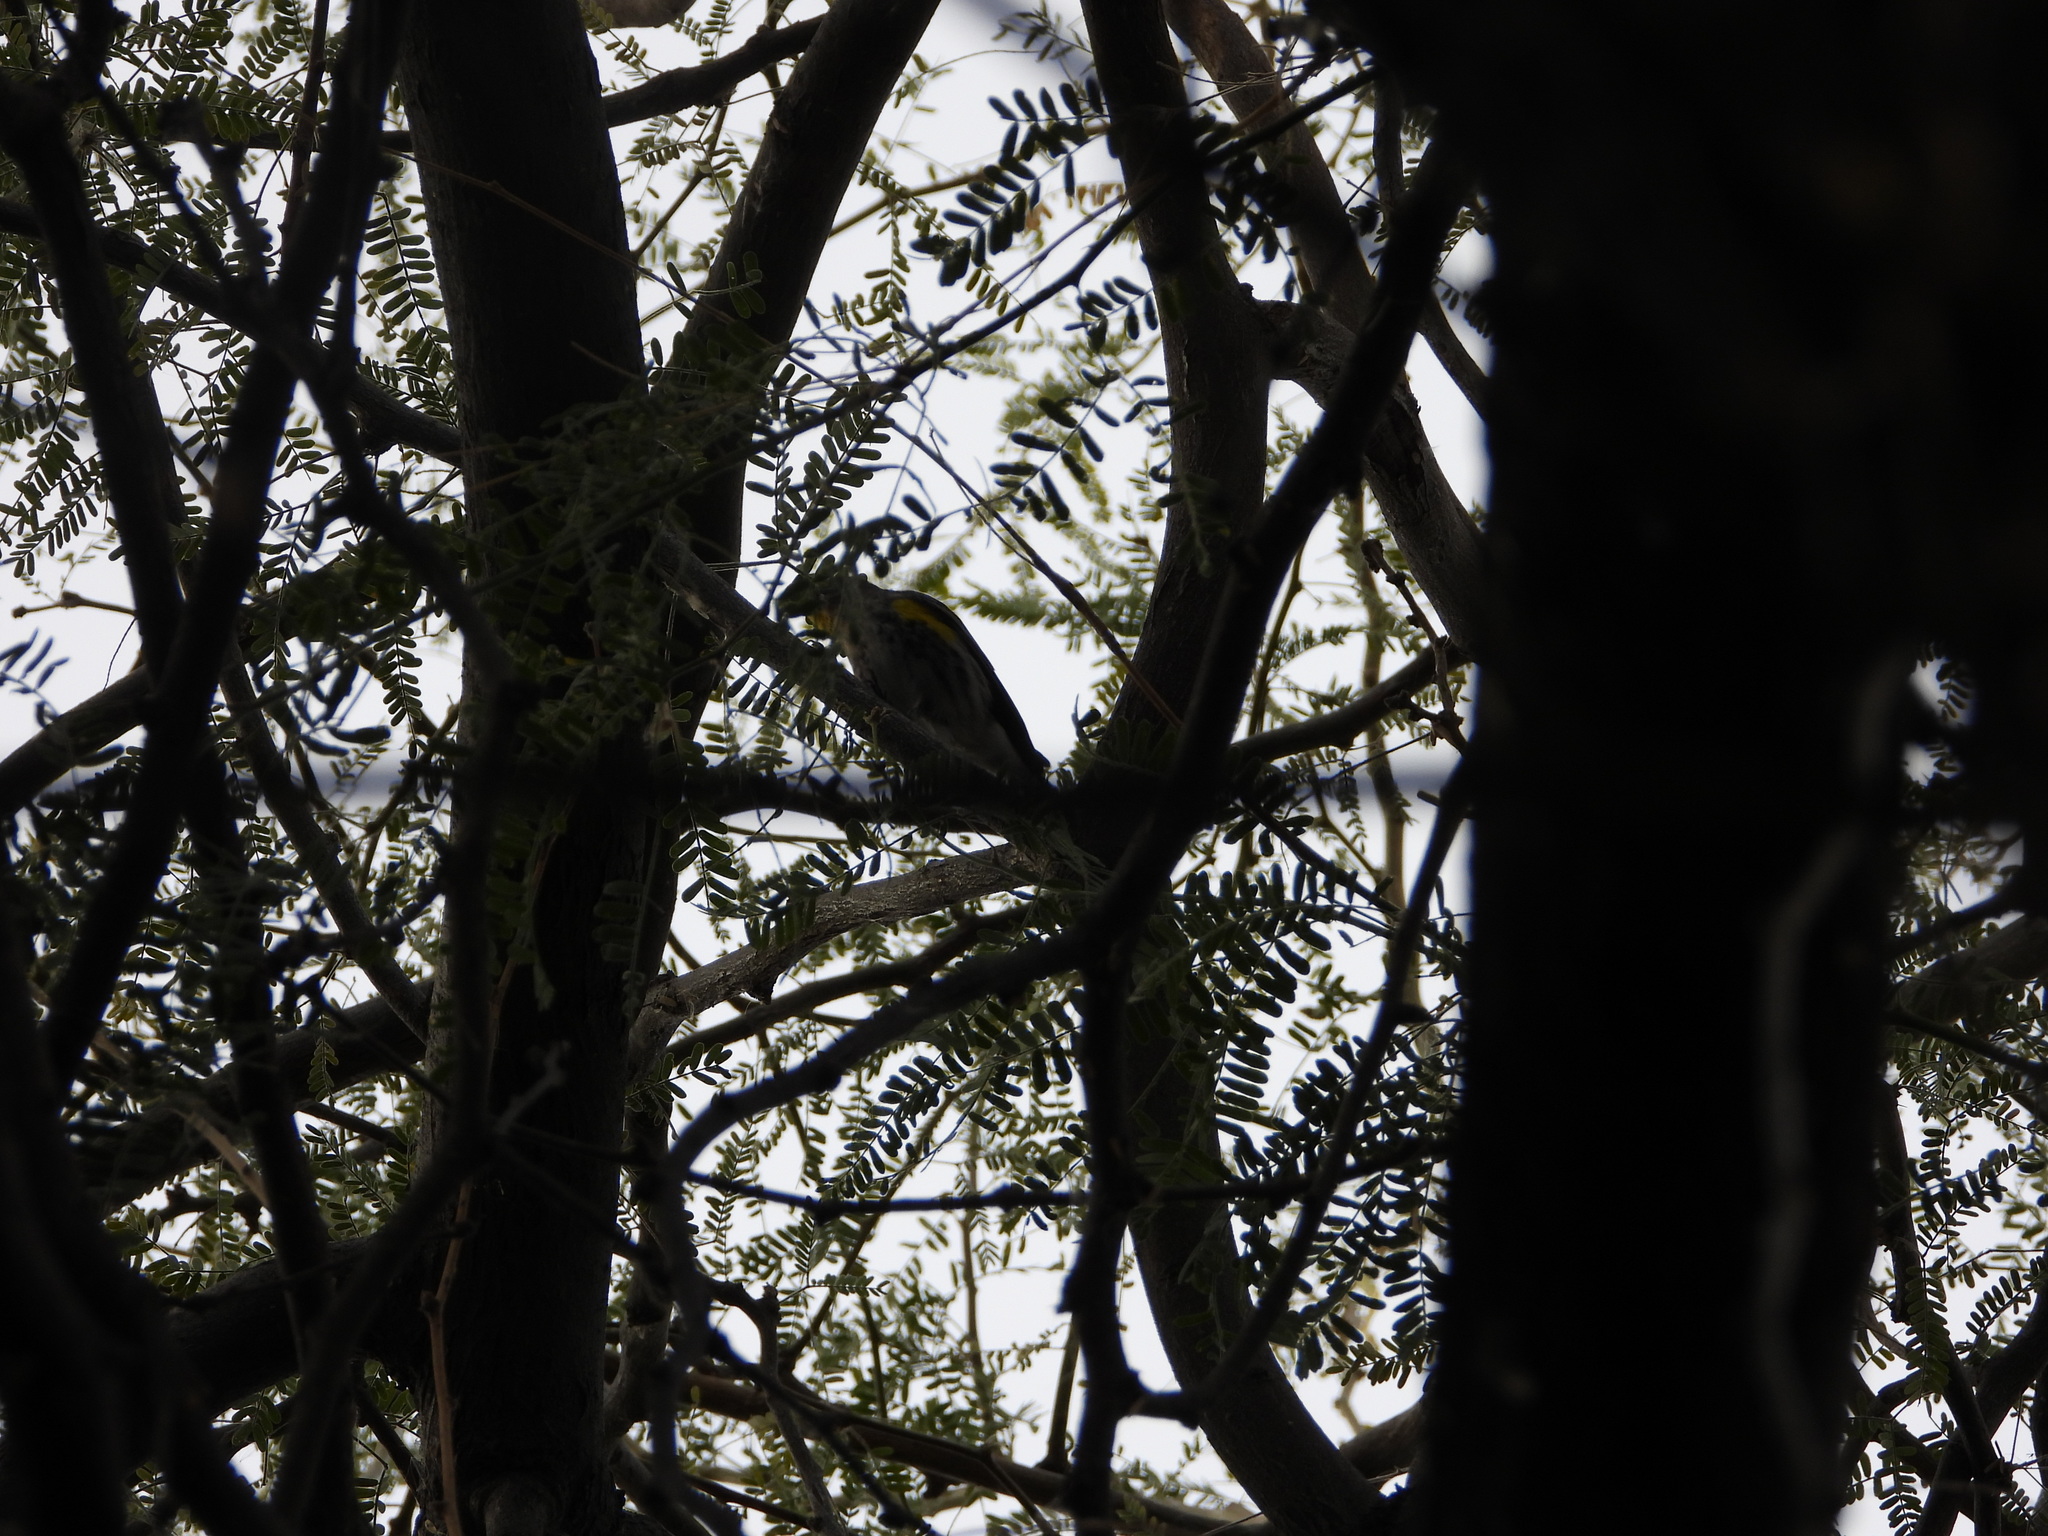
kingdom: Animalia
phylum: Chordata
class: Aves
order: Passeriformes
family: Parulidae
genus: Setophaga
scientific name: Setophaga coronata
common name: Myrtle warbler
